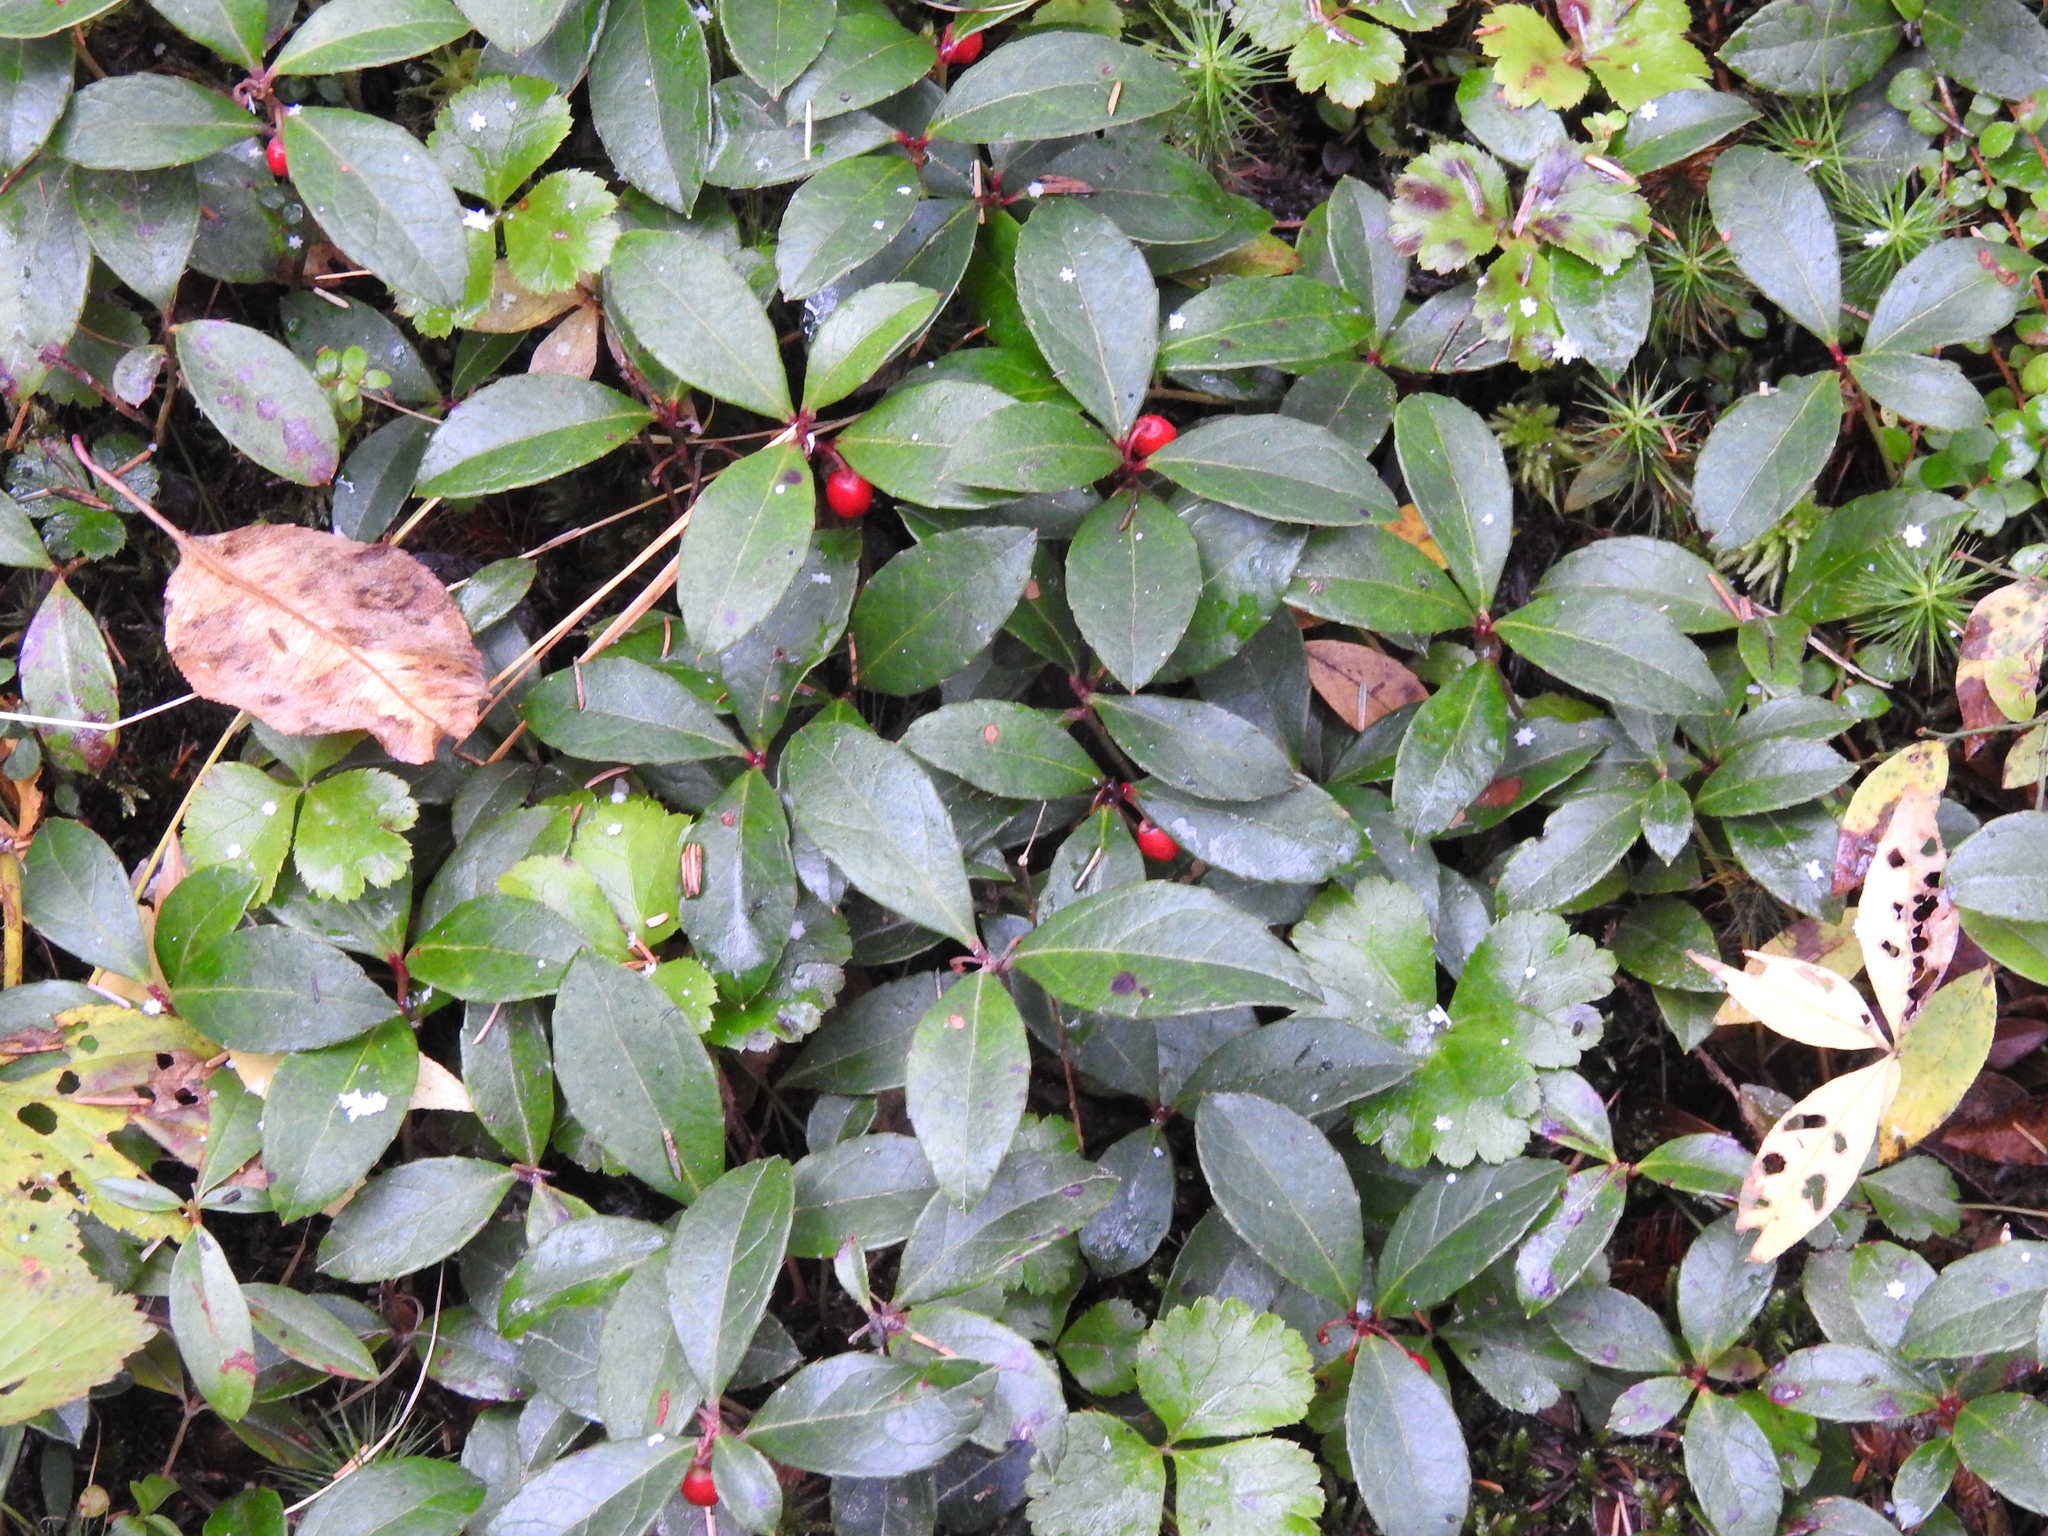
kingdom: Plantae
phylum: Tracheophyta
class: Magnoliopsida
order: Ericales
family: Ericaceae
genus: Gaultheria
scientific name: Gaultheria procumbens
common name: Checkerberry
